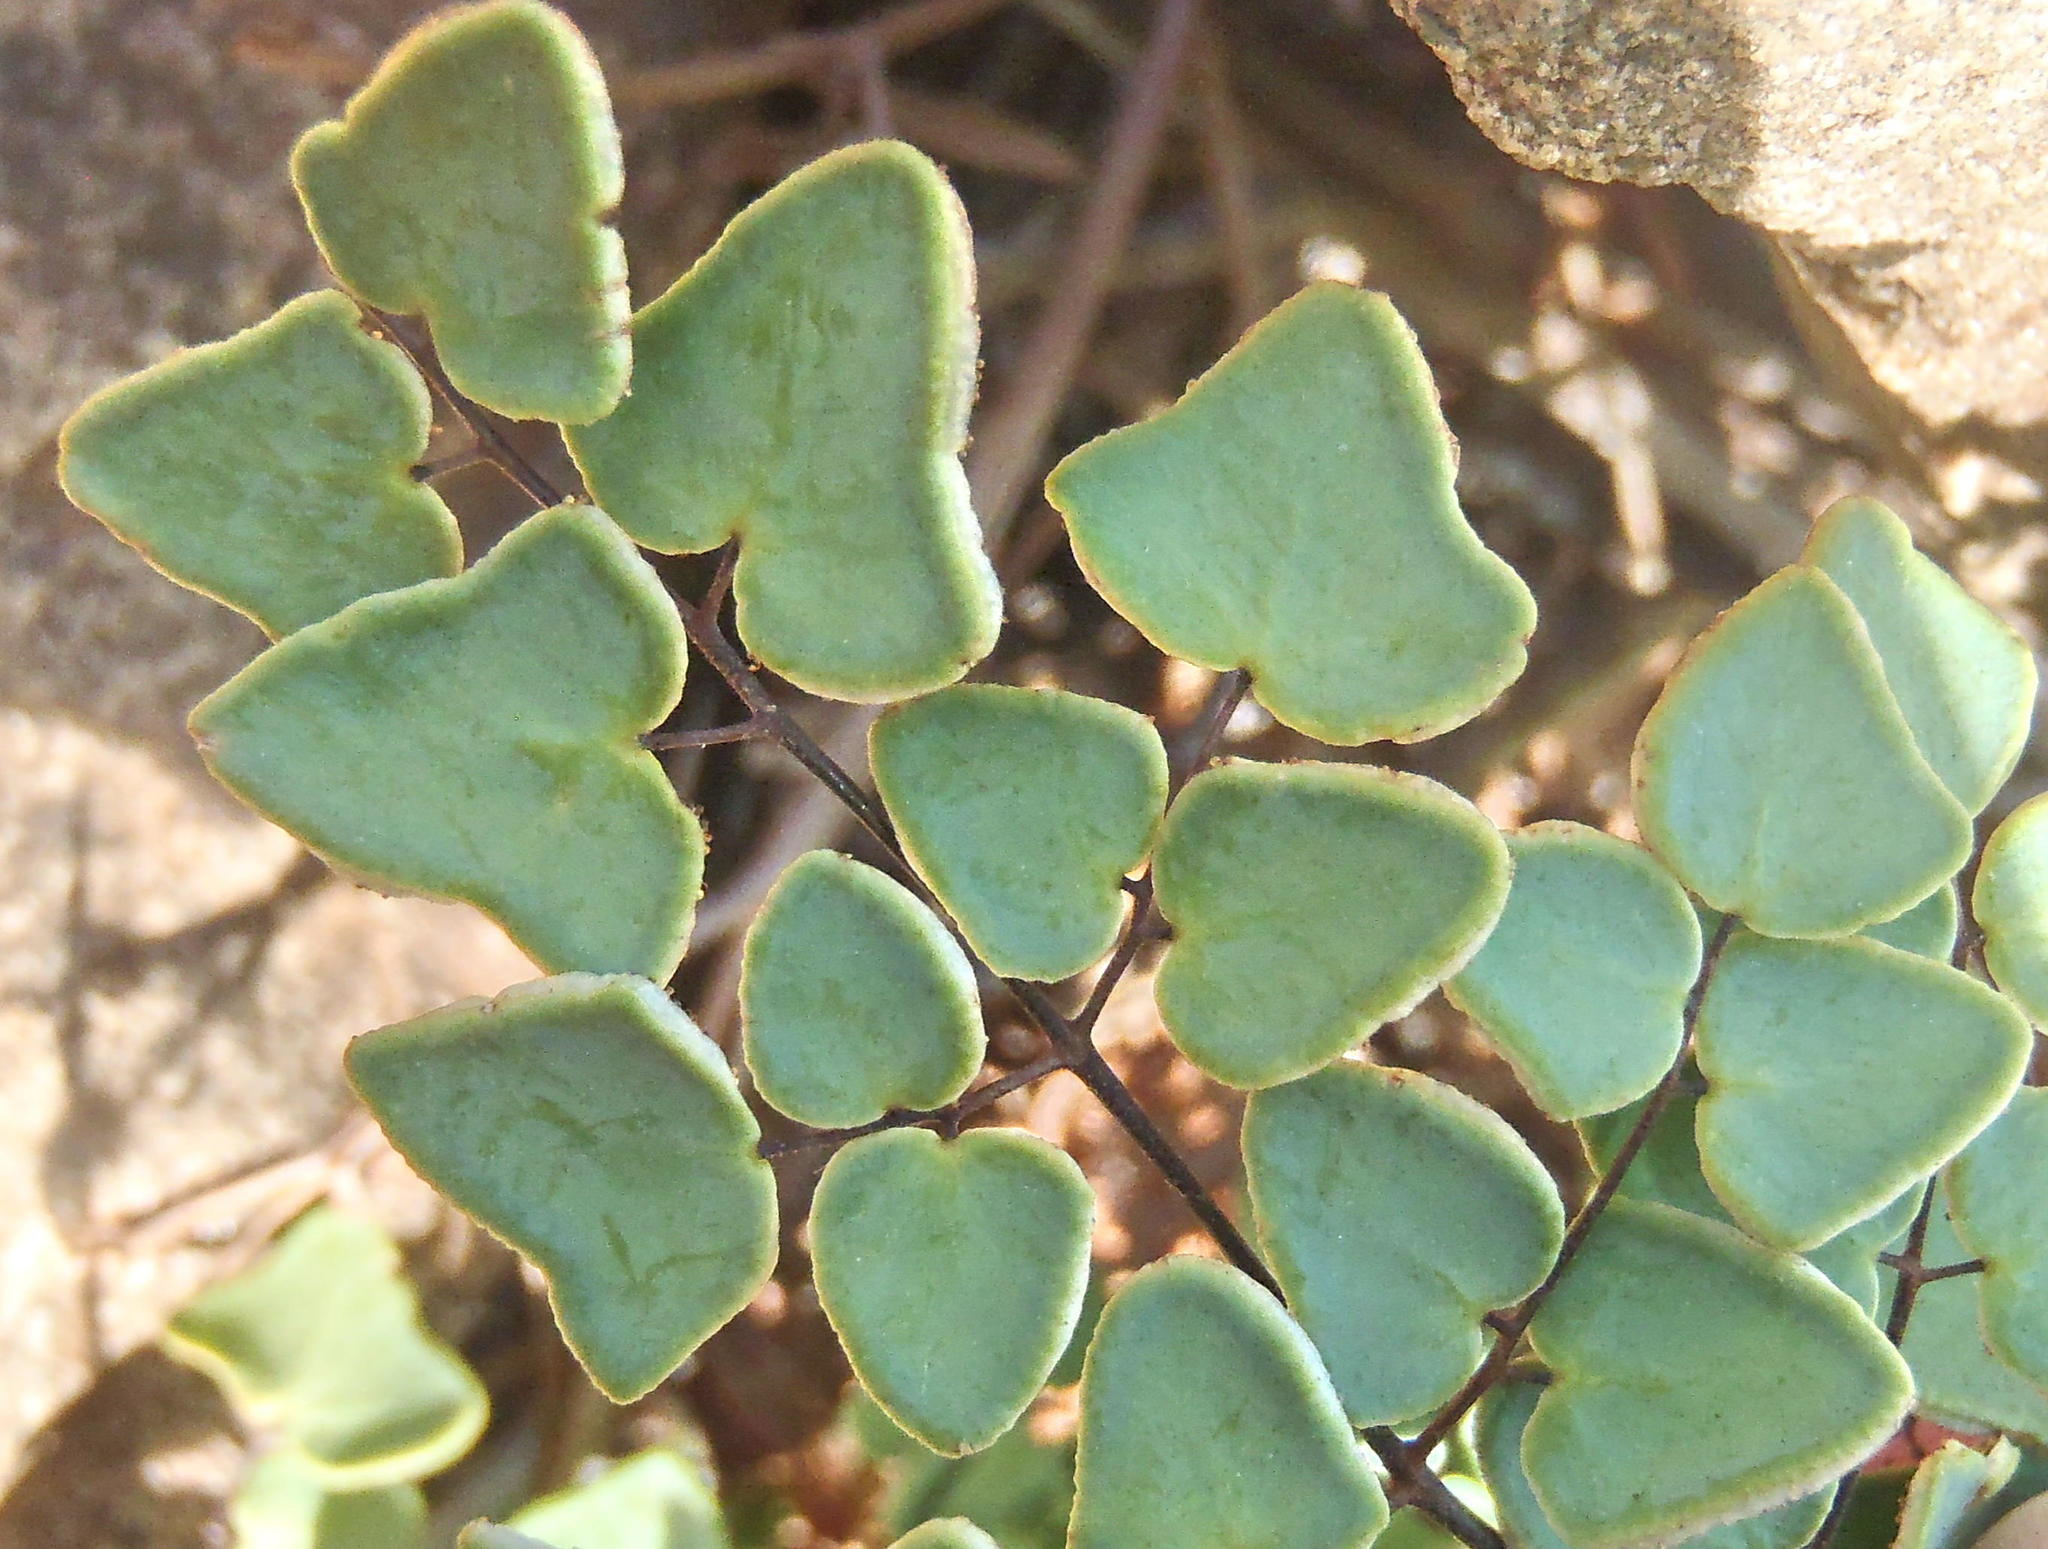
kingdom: Plantae
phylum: Tracheophyta
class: Polypodiopsida
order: Polypodiales
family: Pteridaceae
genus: Pellaea
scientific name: Pellaea calomelanos
